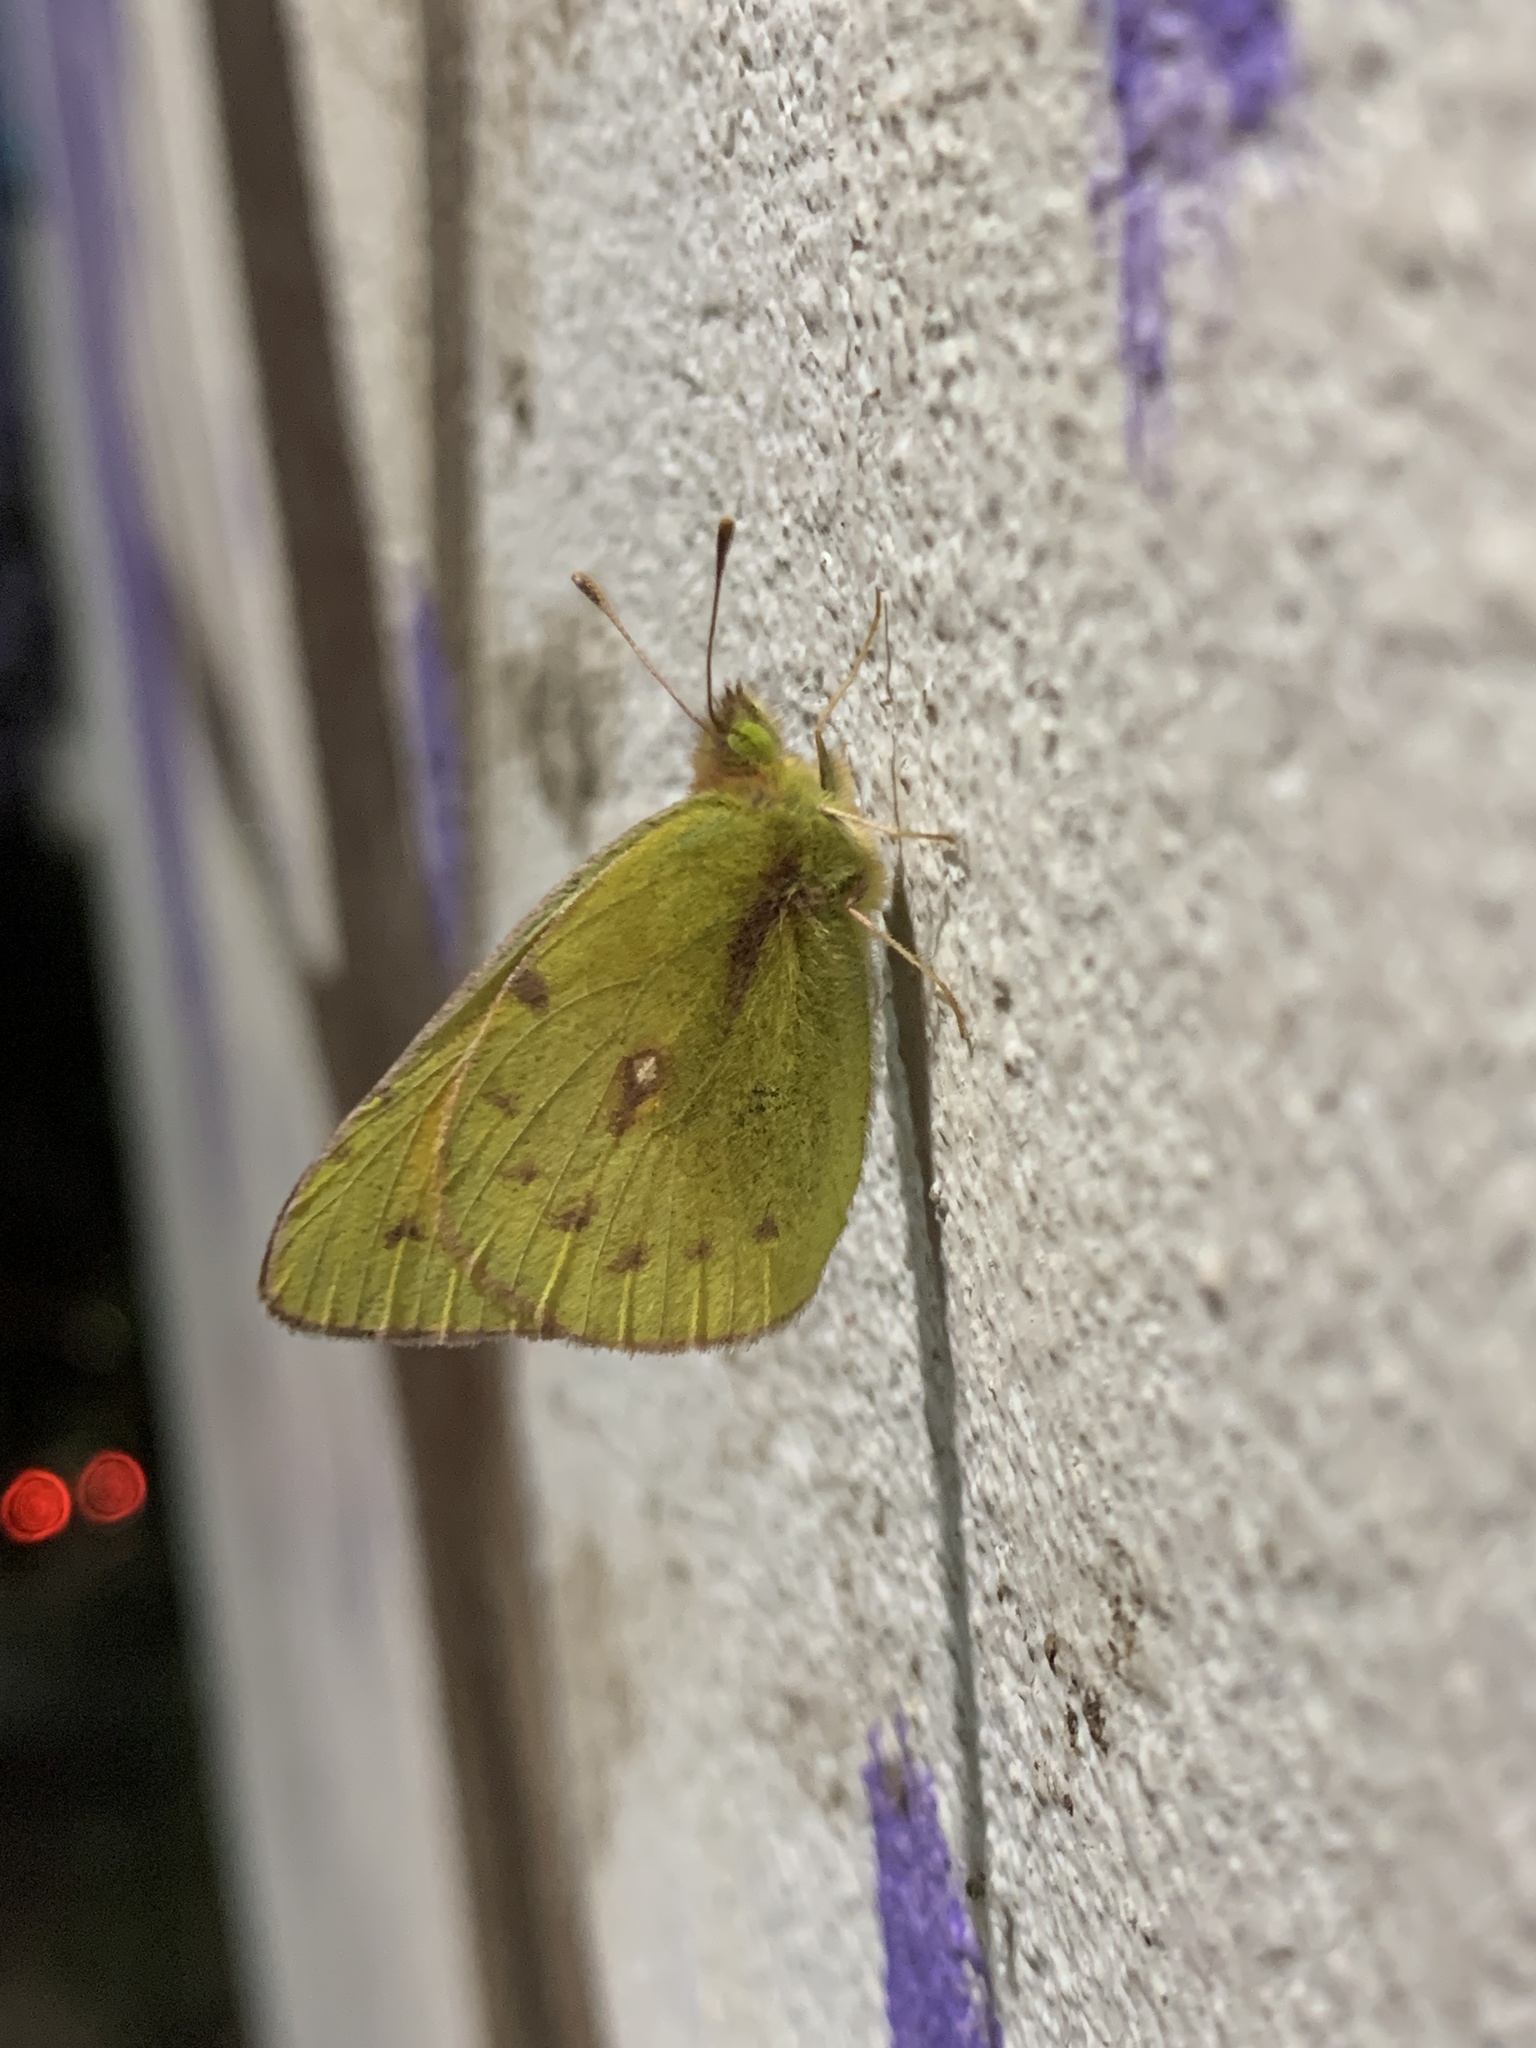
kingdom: Animalia
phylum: Arthropoda
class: Insecta
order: Lepidoptera
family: Pieridae
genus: Colias
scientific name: Colias lesbia
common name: Lesbia clouded yellow
